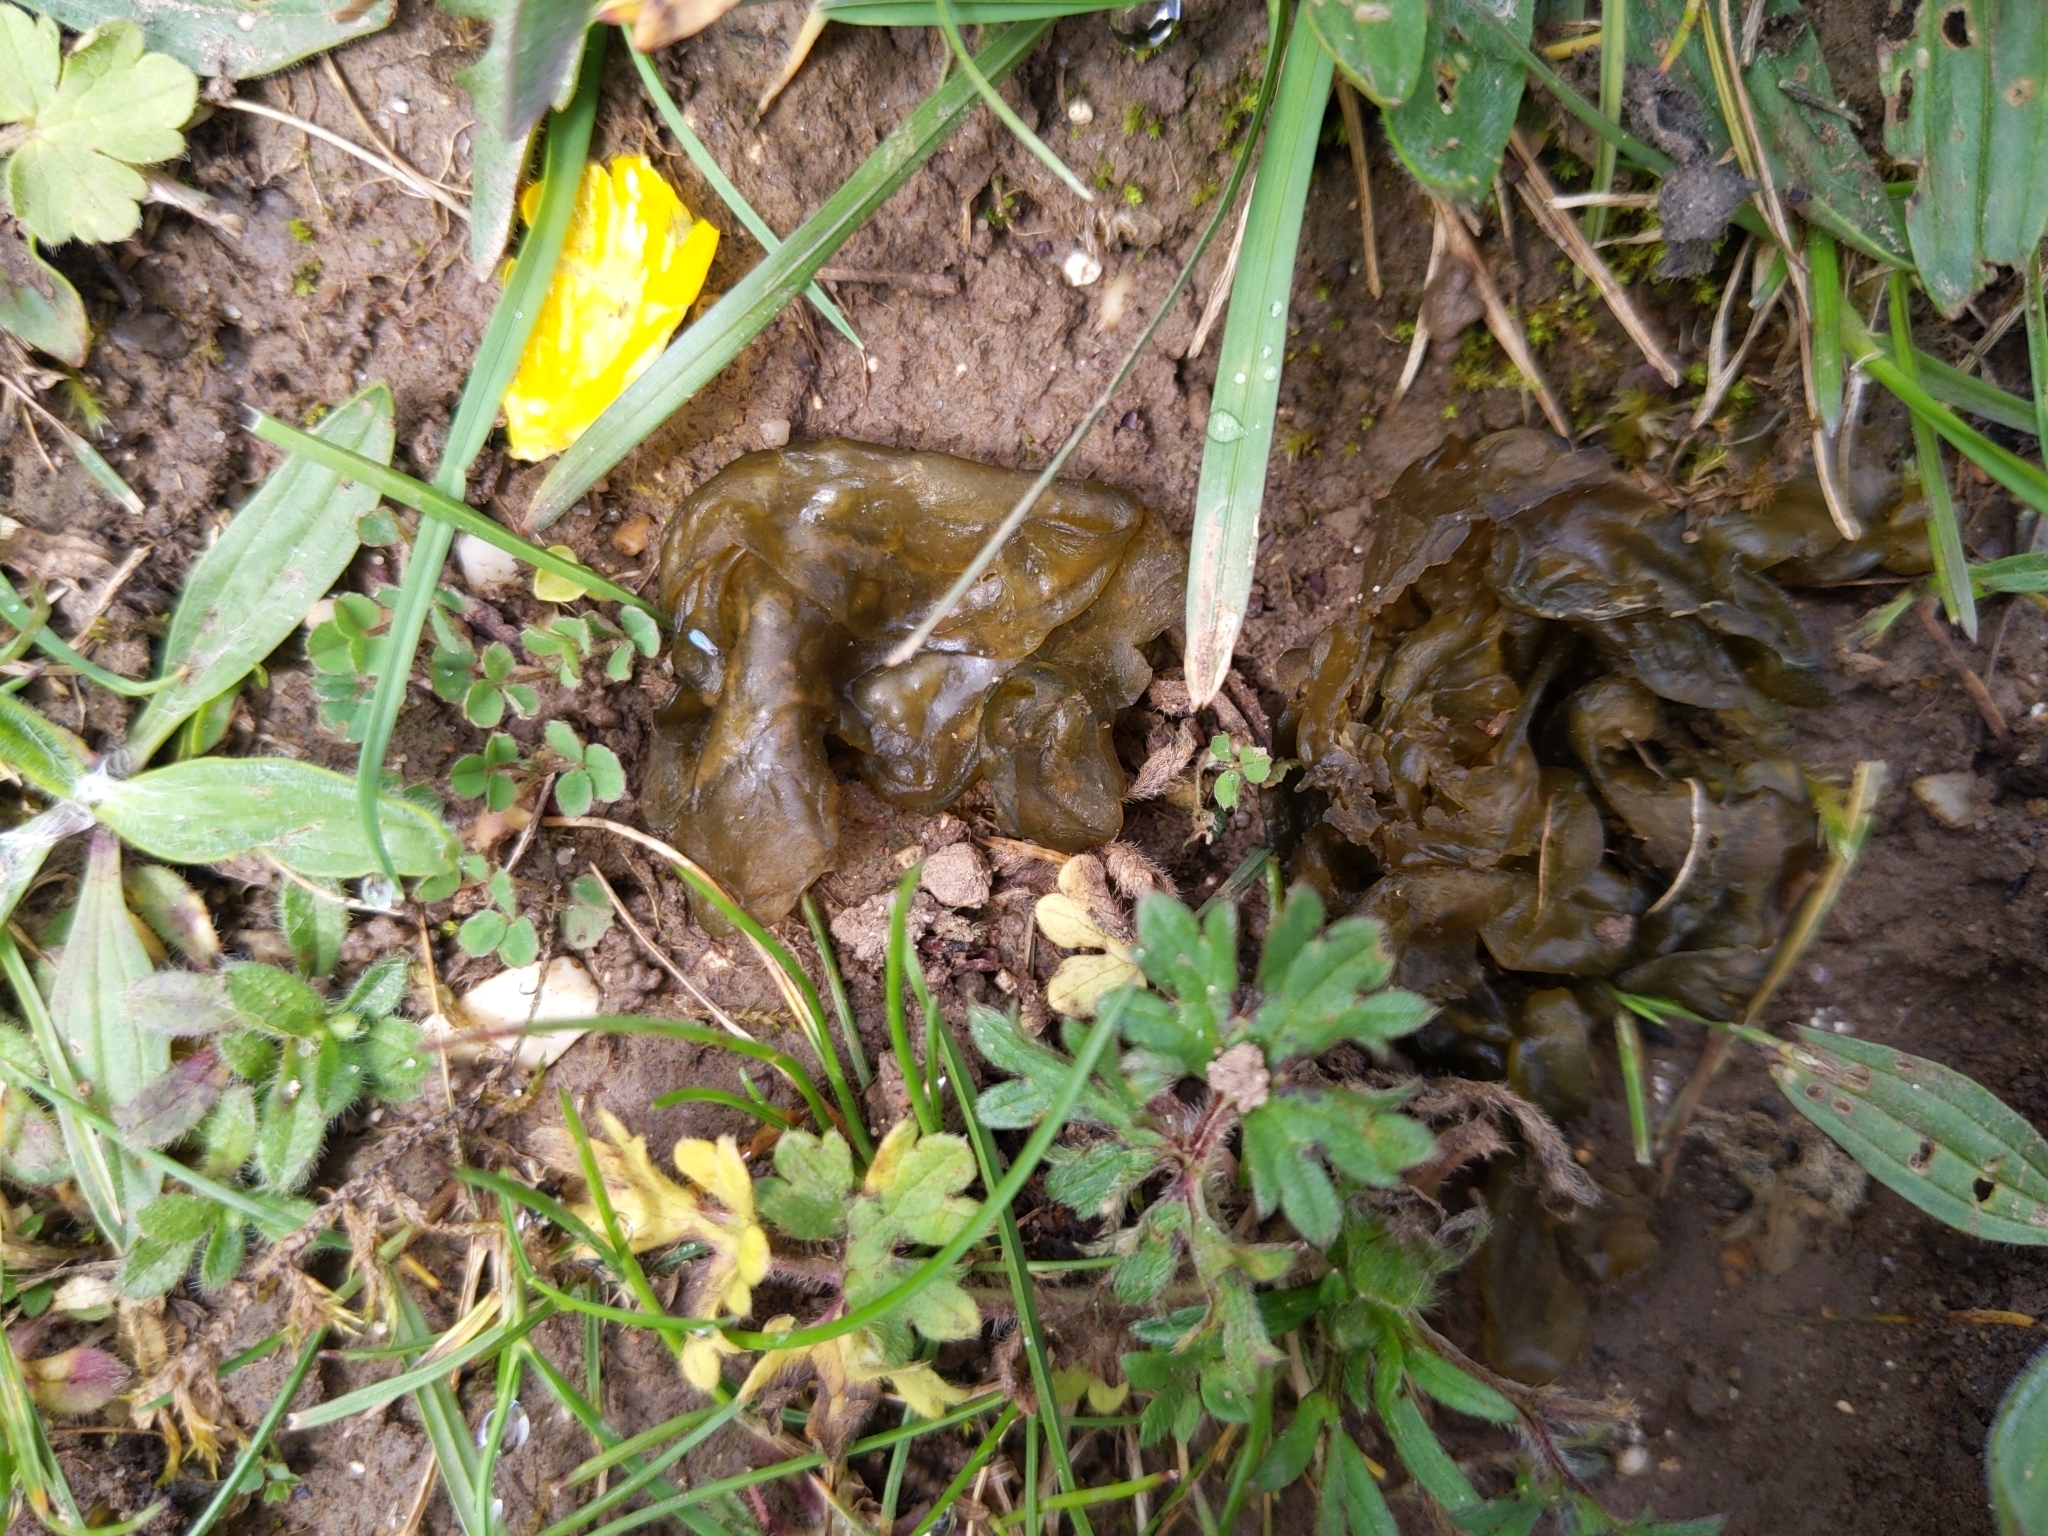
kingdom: Bacteria
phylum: Cyanobacteria
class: Cyanobacteriia
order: Cyanobacteriales
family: Nostocaceae
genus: Nostoc
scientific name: Nostoc commune
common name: Star jelly
